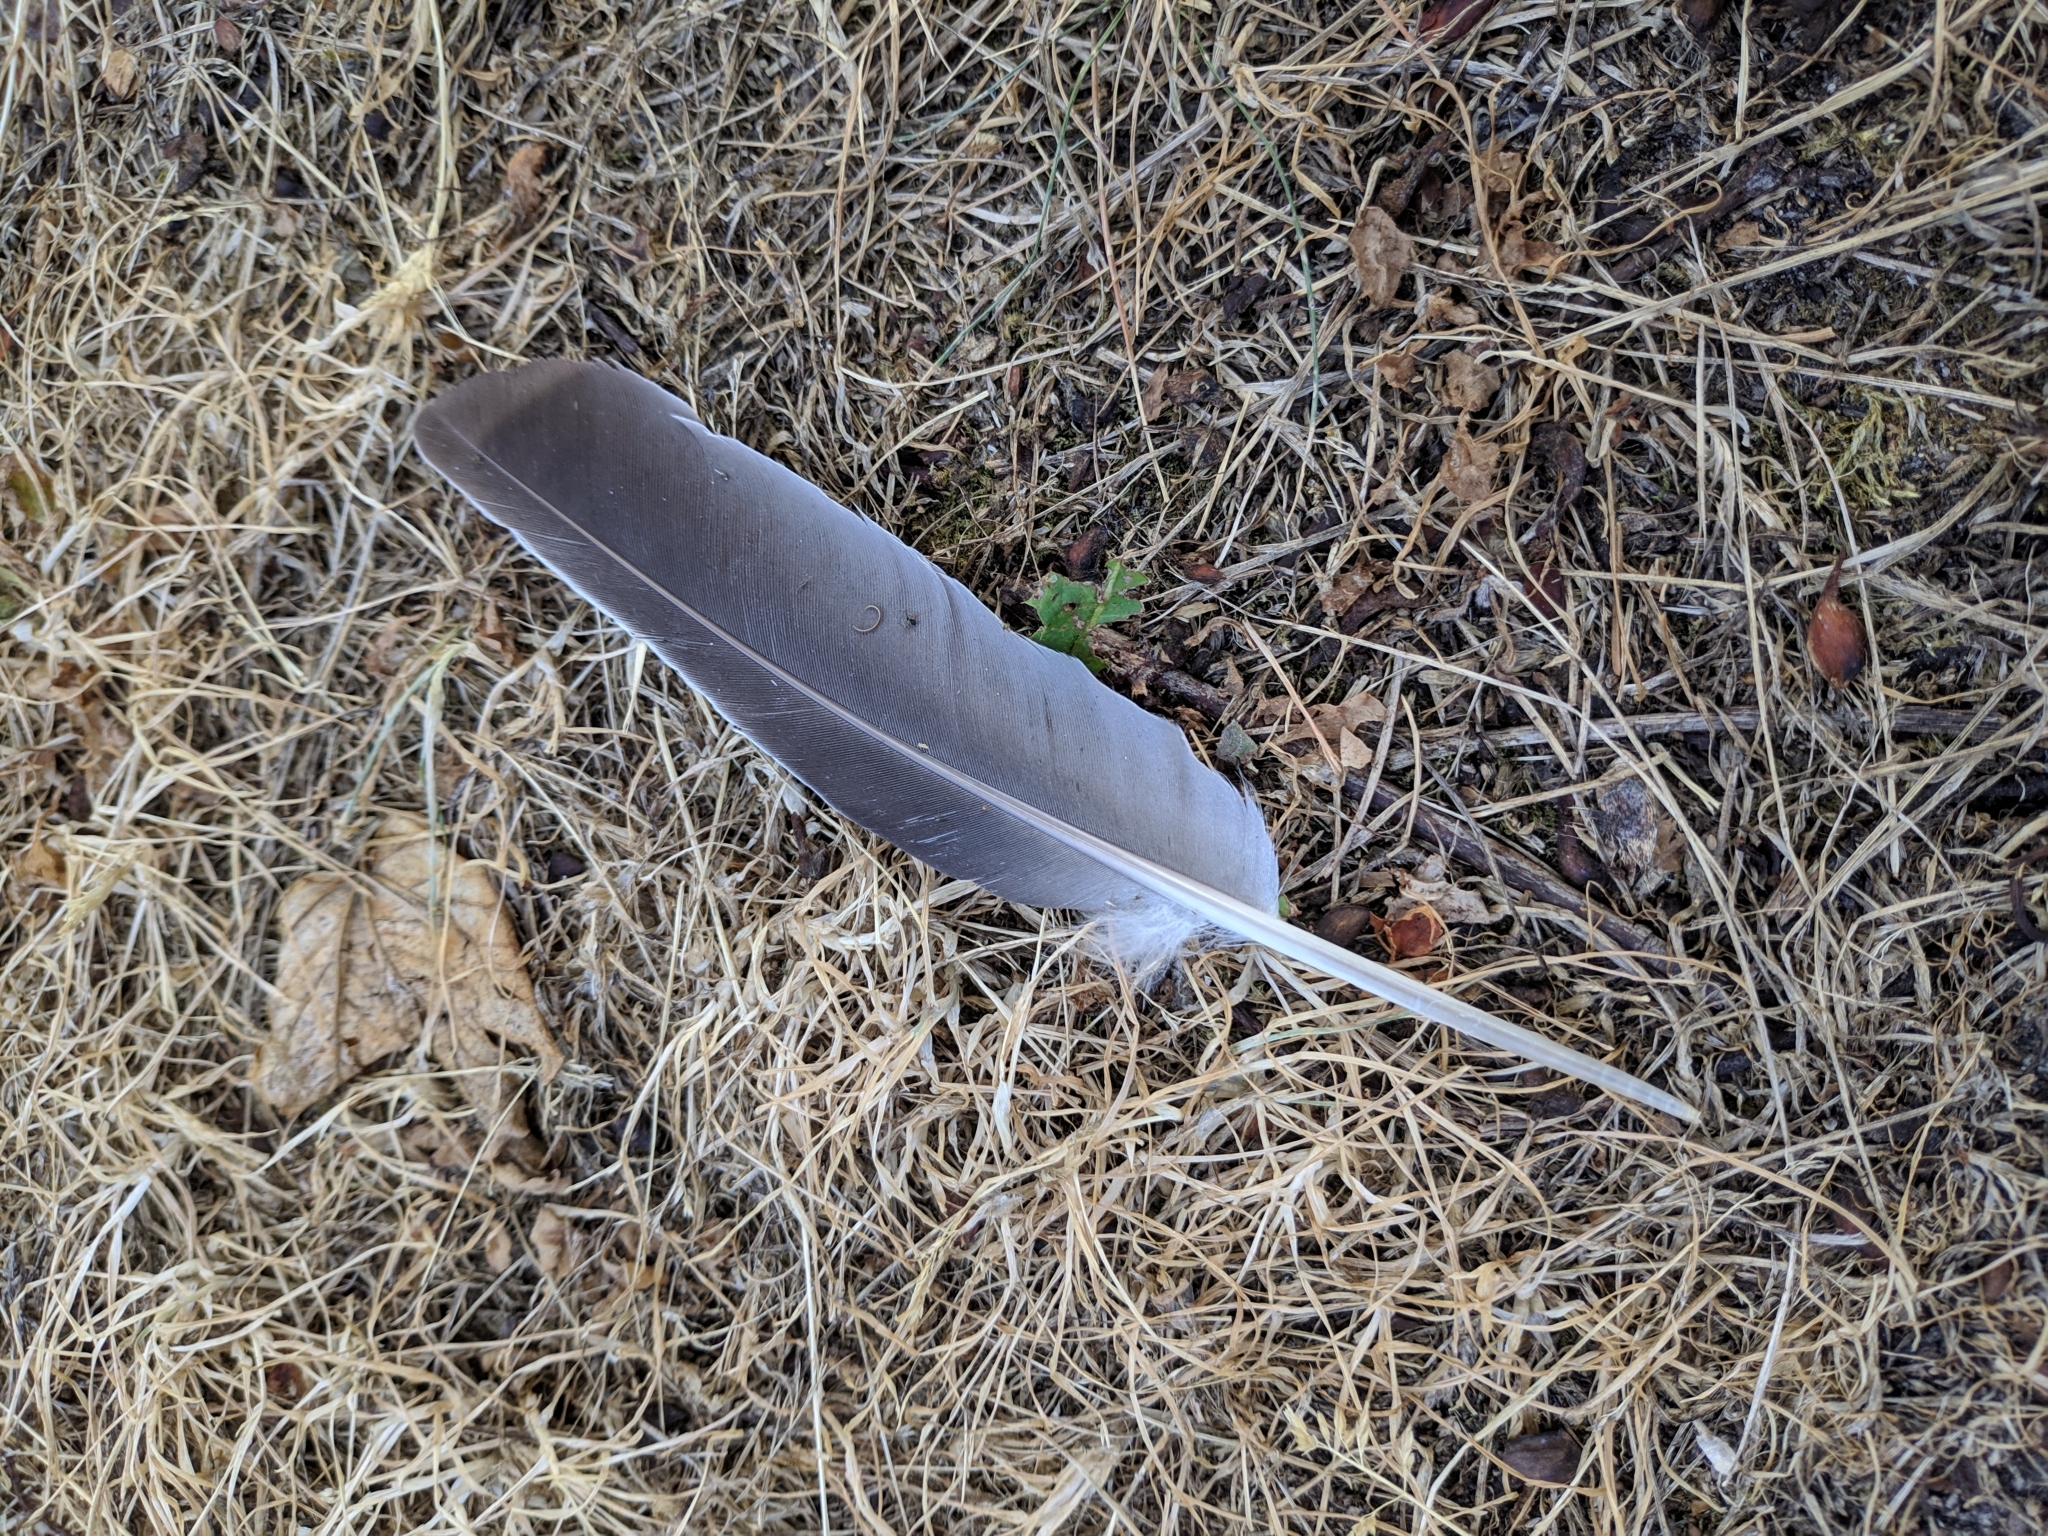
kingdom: Animalia
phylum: Chordata
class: Aves
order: Columbiformes
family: Columbidae
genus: Columba
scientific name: Columba palumbus
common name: Common wood pigeon
